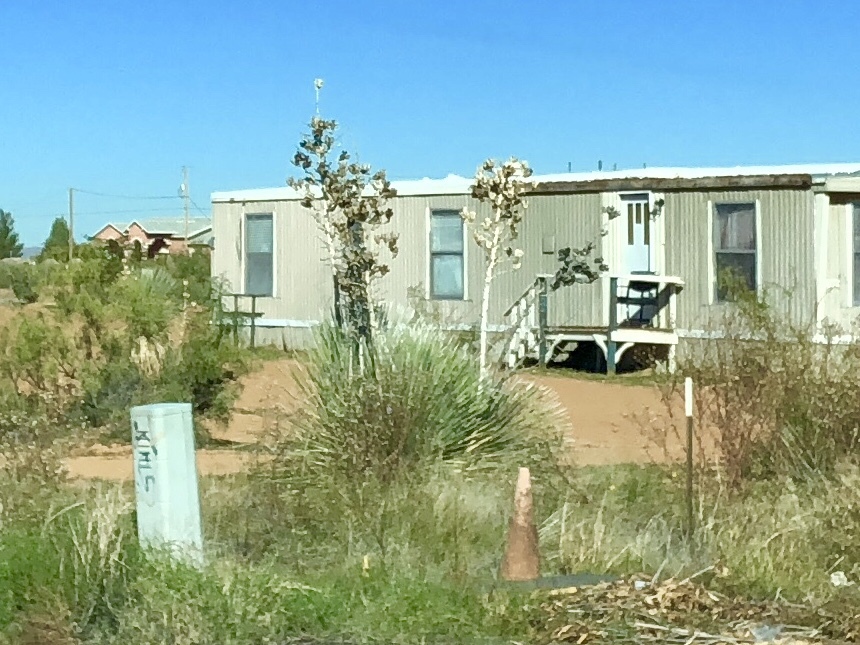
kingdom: Plantae
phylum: Tracheophyta
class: Liliopsida
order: Asparagales
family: Asparagaceae
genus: Yucca
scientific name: Yucca elata
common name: Palmella
